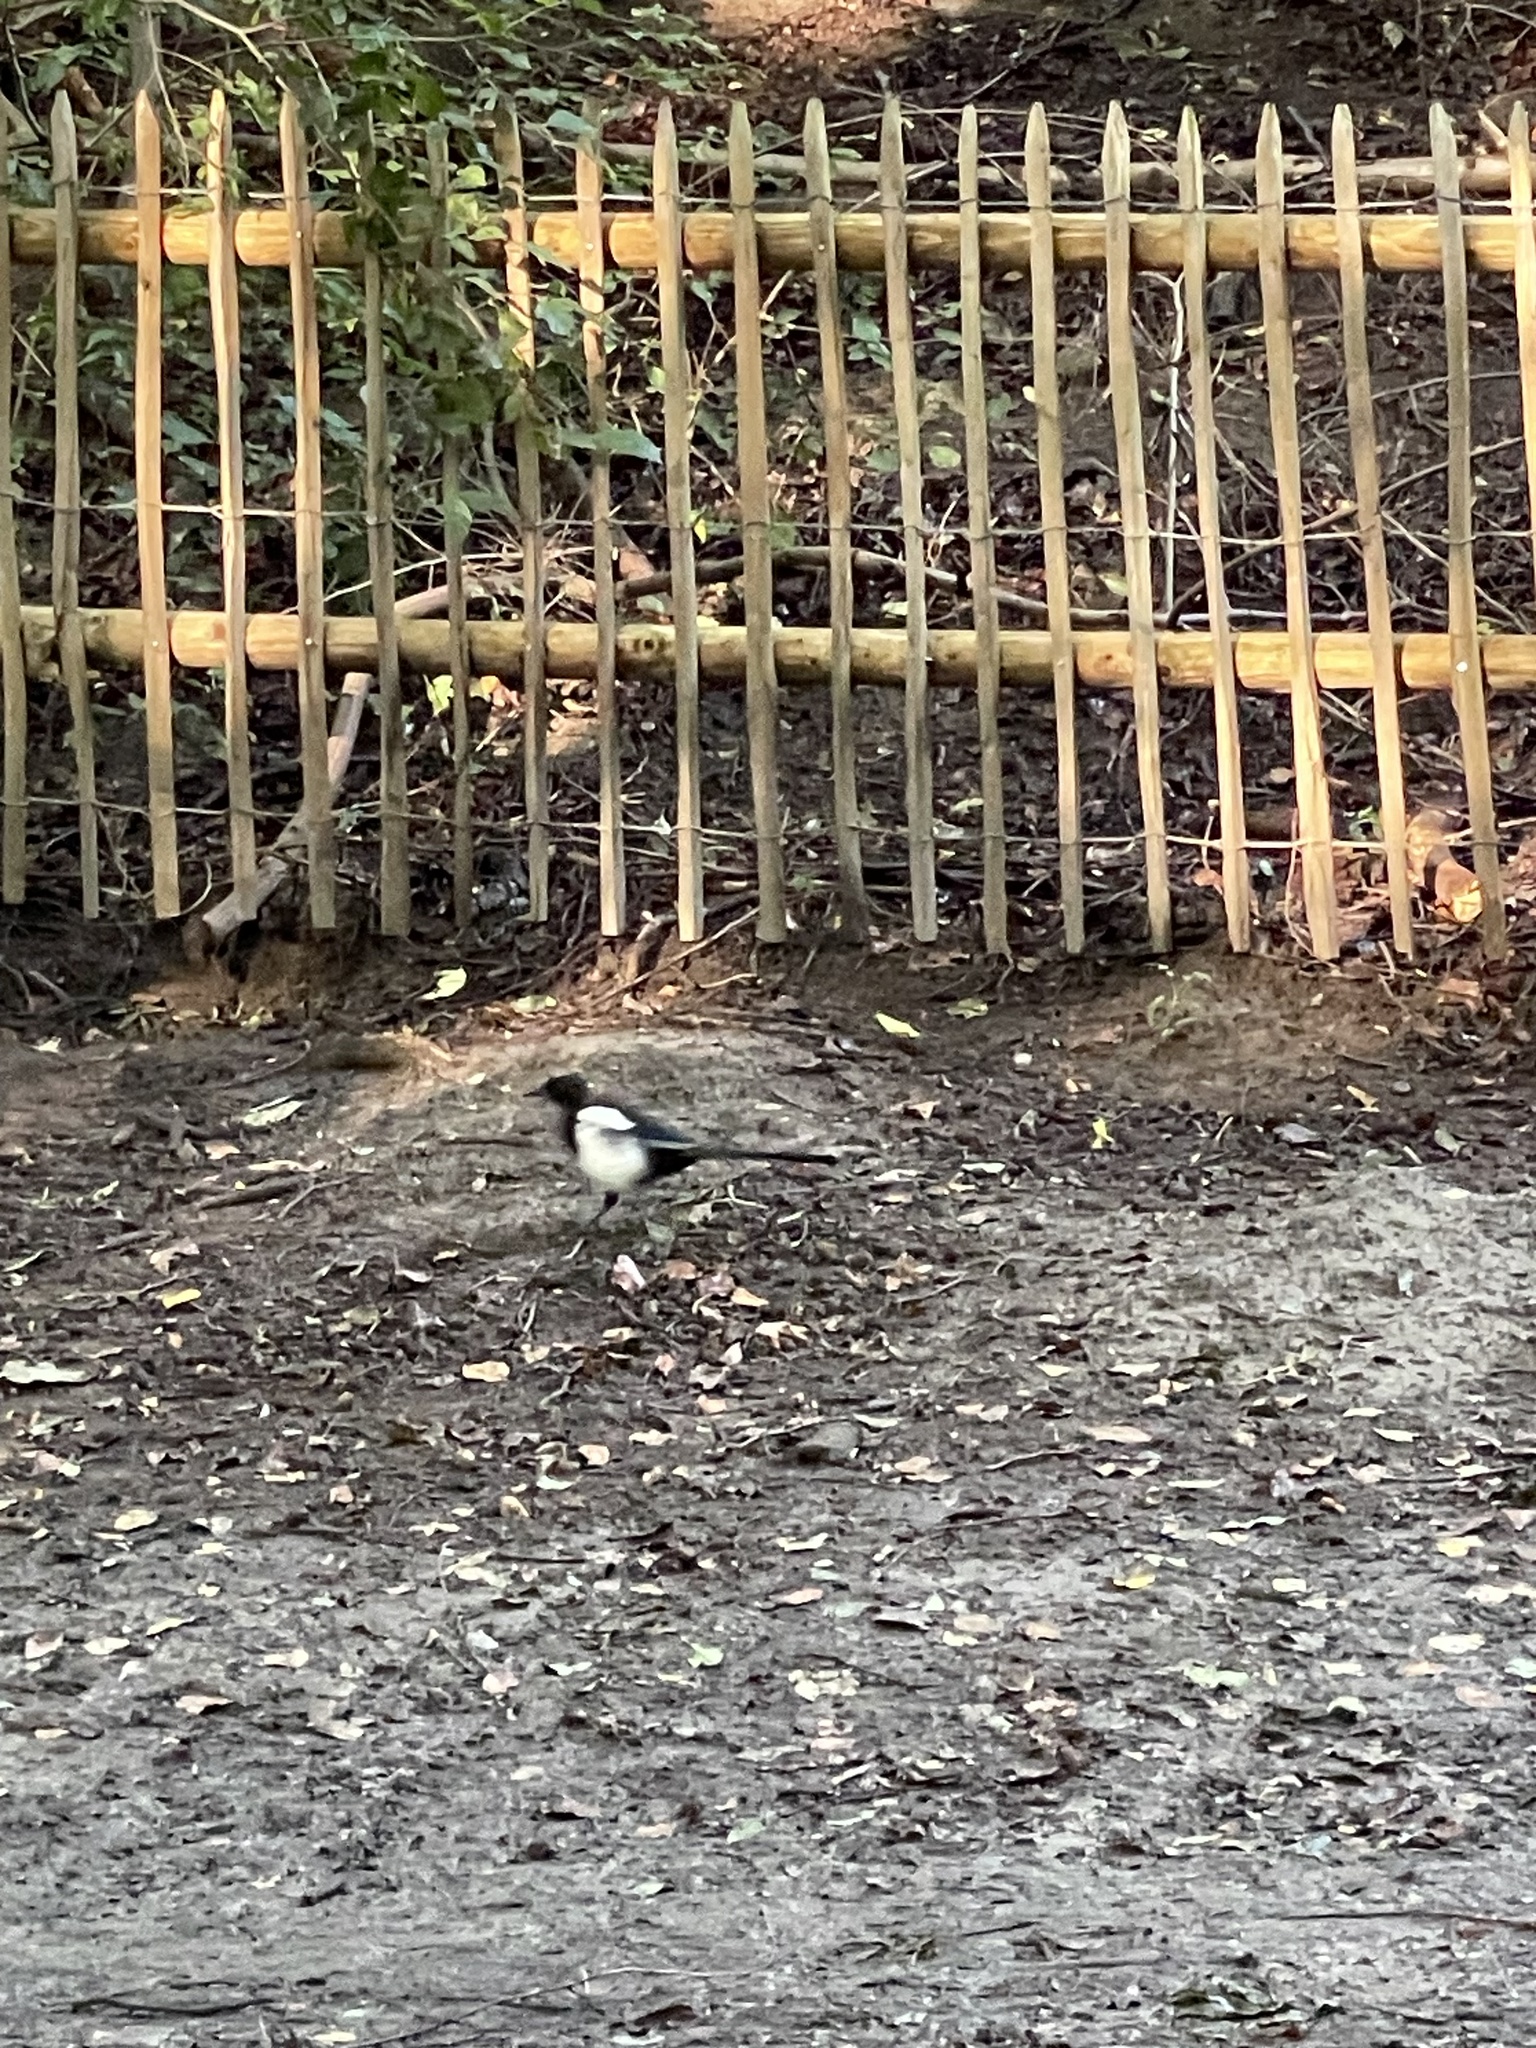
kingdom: Animalia
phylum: Chordata
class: Aves
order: Passeriformes
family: Corvidae
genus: Pica
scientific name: Pica pica
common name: Eurasian magpie
